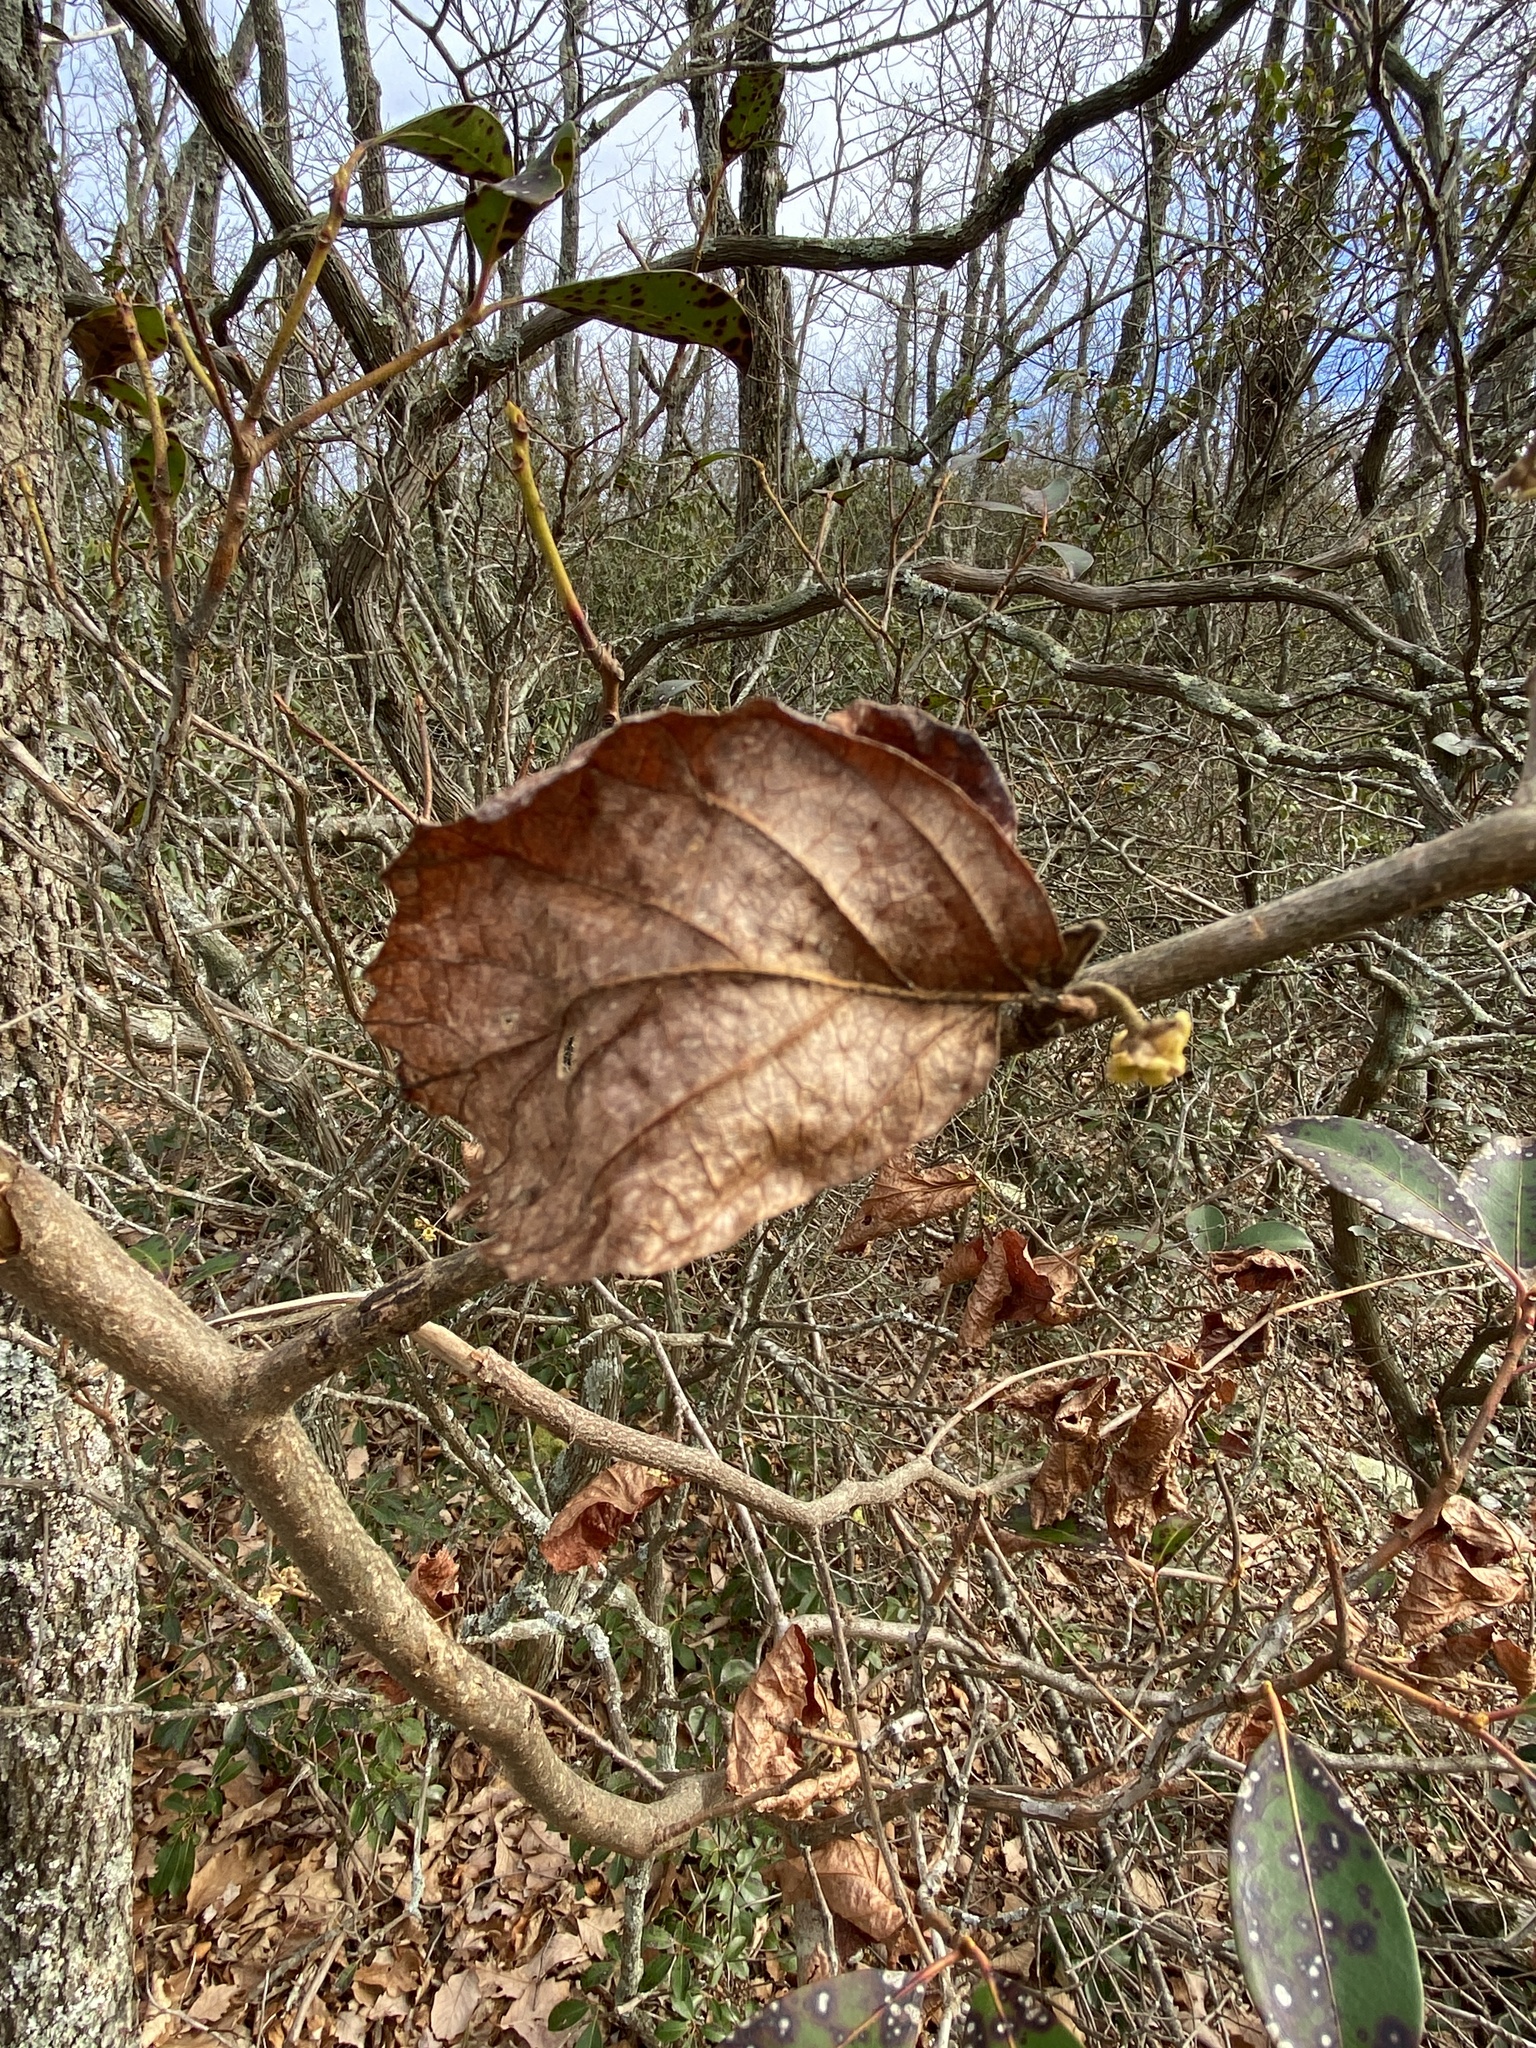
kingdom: Plantae
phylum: Tracheophyta
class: Magnoliopsida
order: Saxifragales
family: Hamamelidaceae
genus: Hamamelis
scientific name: Hamamelis virginiana
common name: Witch-hazel
